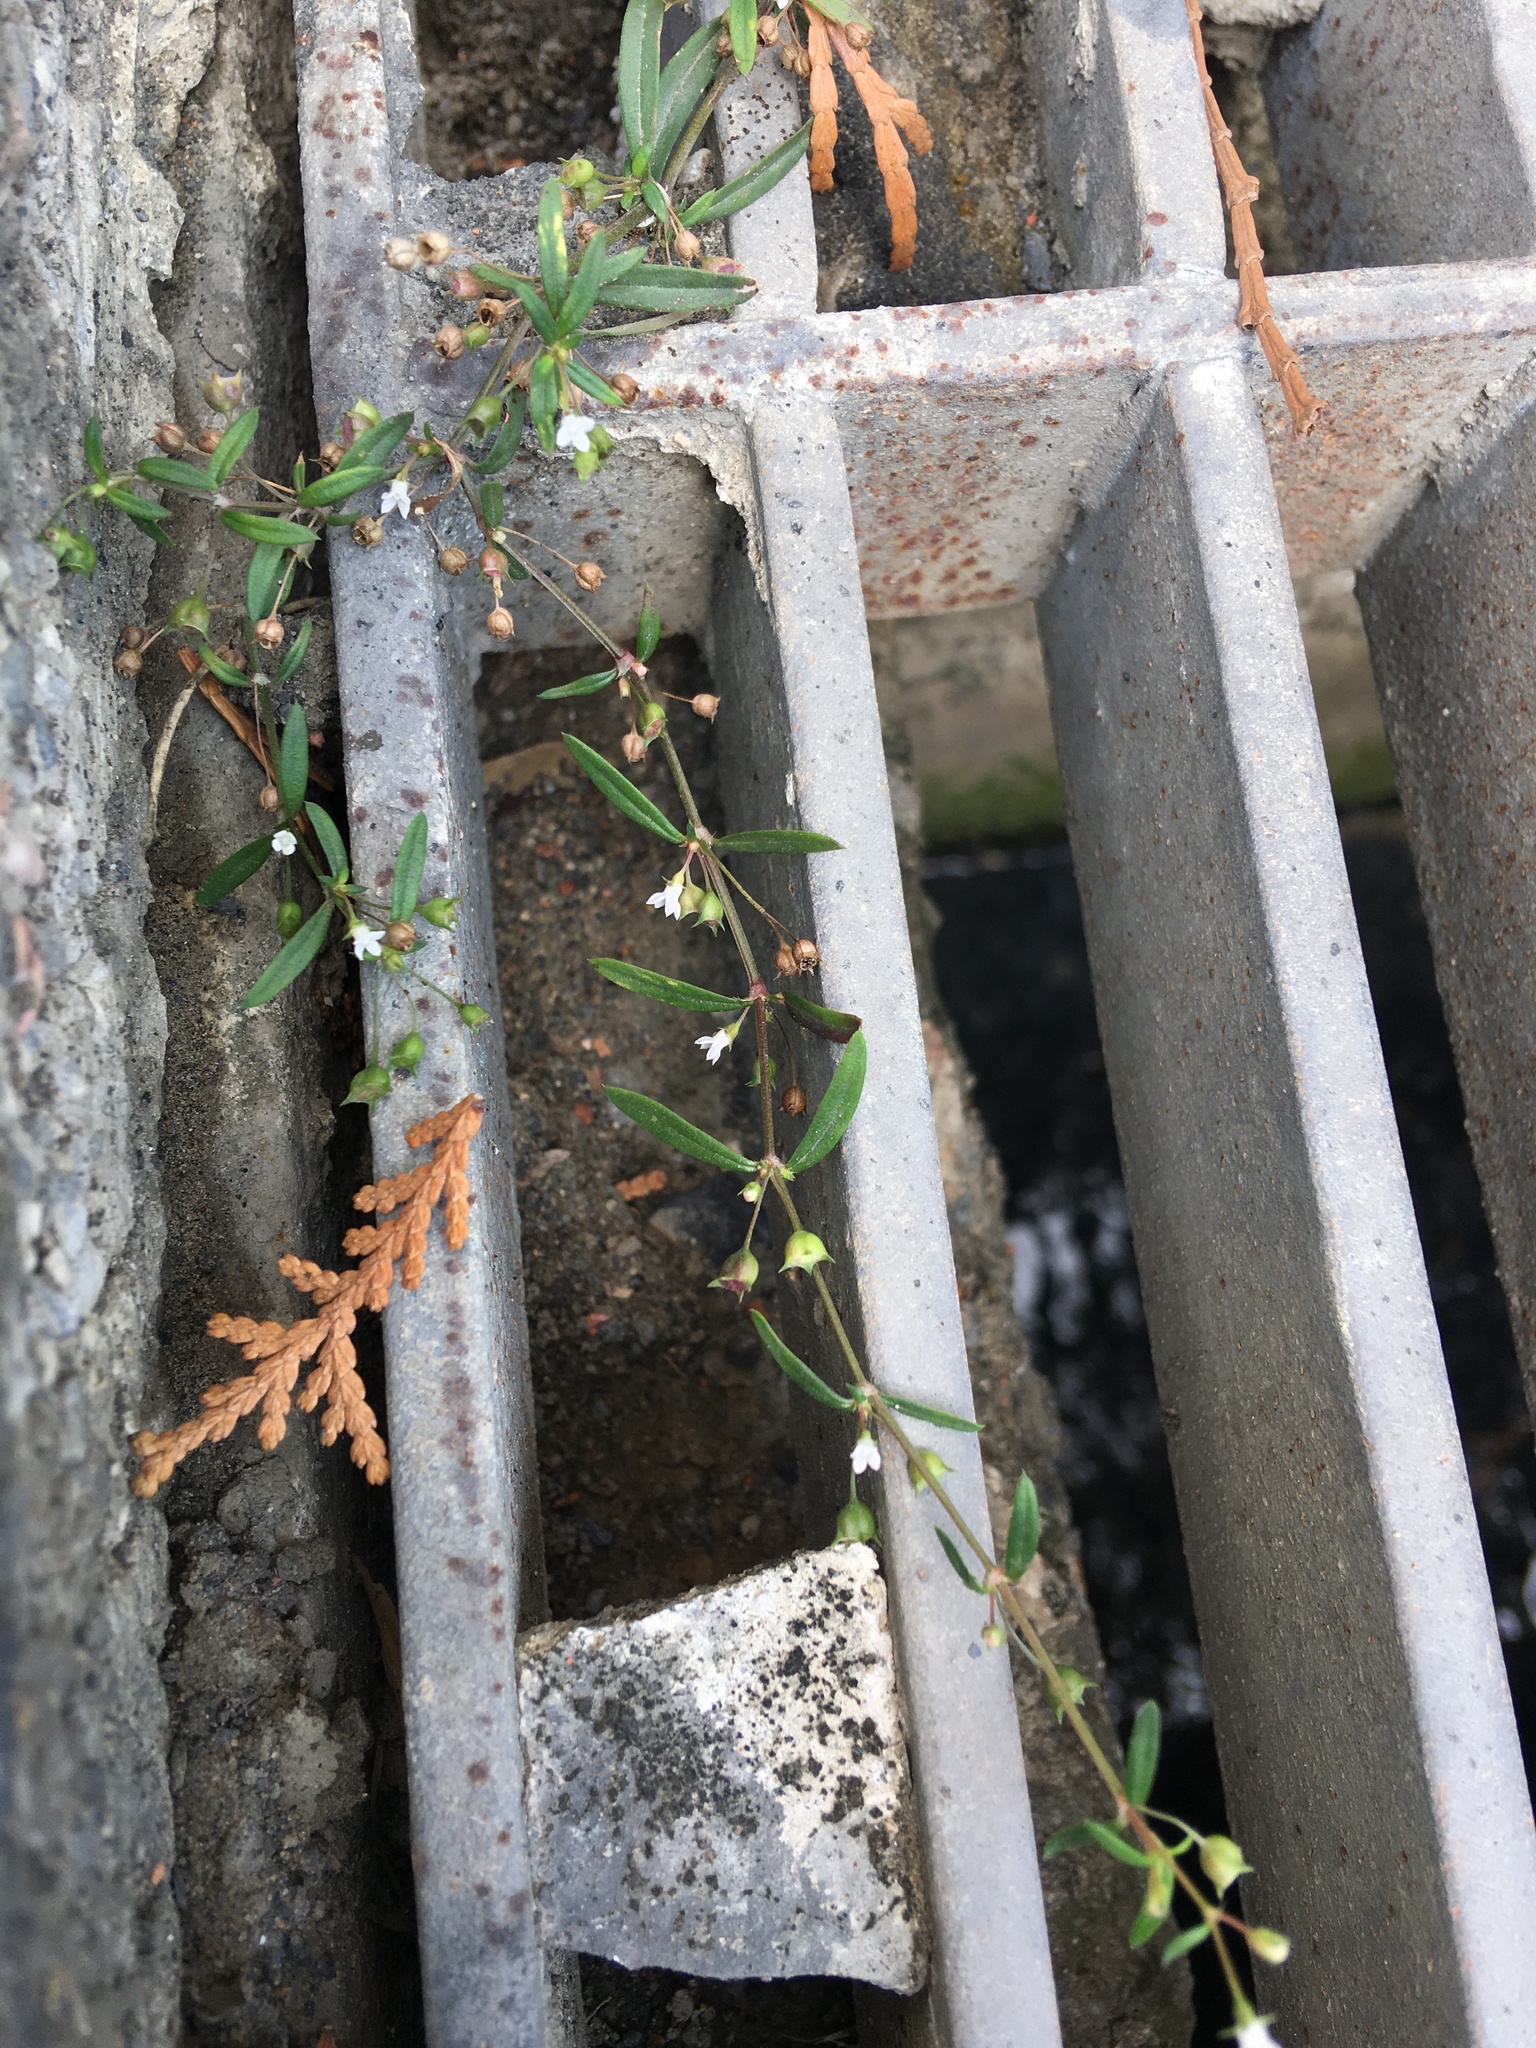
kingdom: Plantae
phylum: Tracheophyta
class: Magnoliopsida
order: Gentianales
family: Rubiaceae
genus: Oldenlandia
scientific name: Oldenlandia corymbosa
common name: Flat-top mille graines
